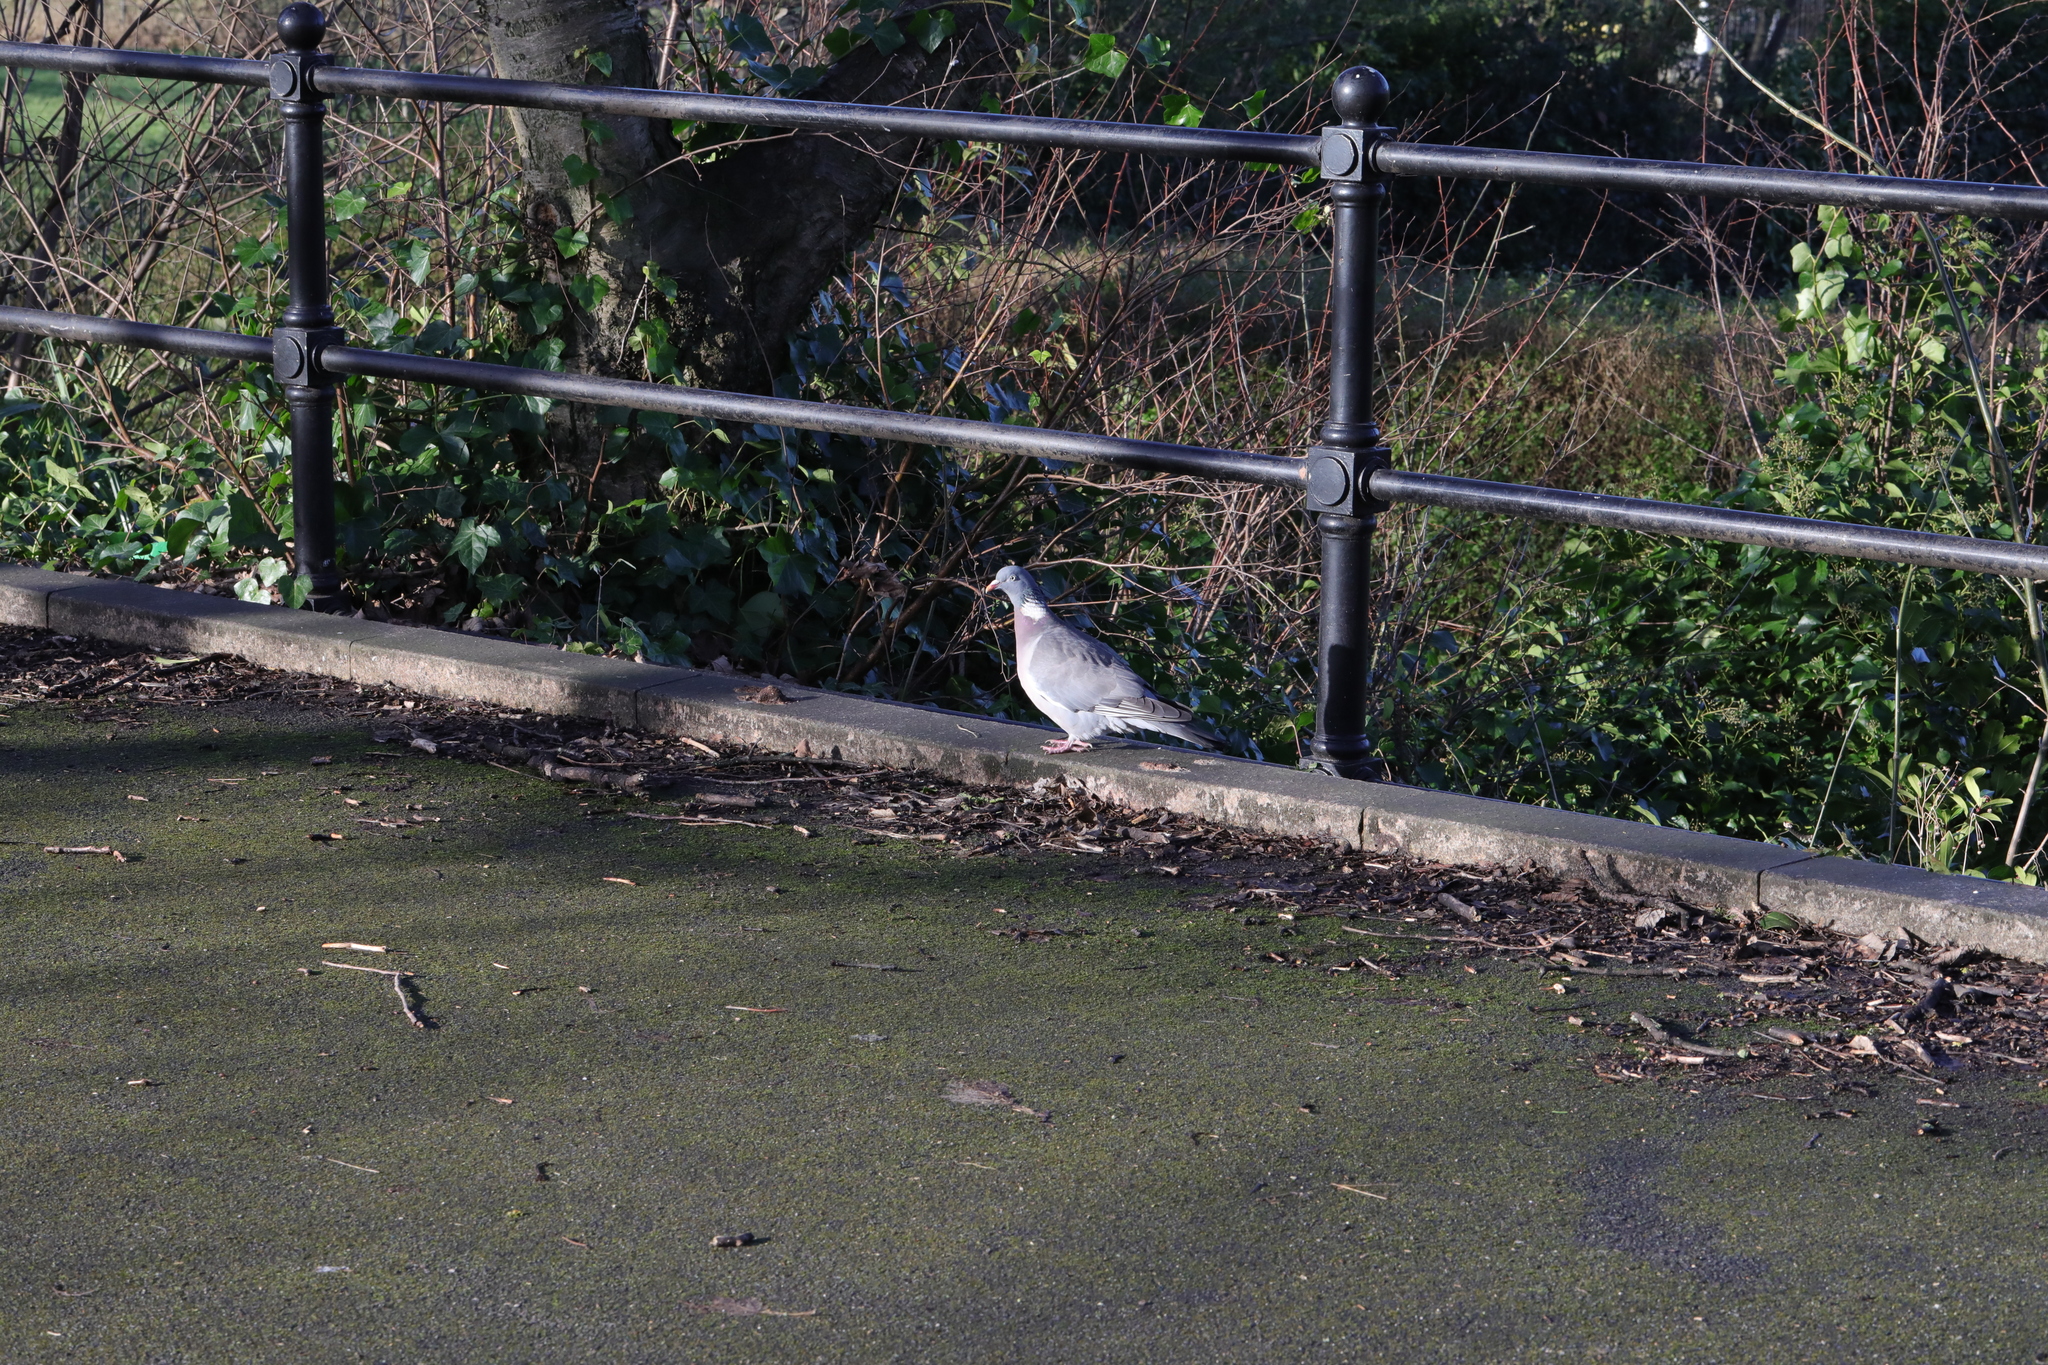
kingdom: Animalia
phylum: Chordata
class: Aves
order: Columbiformes
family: Columbidae
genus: Columba
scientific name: Columba palumbus
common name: Common wood pigeon
